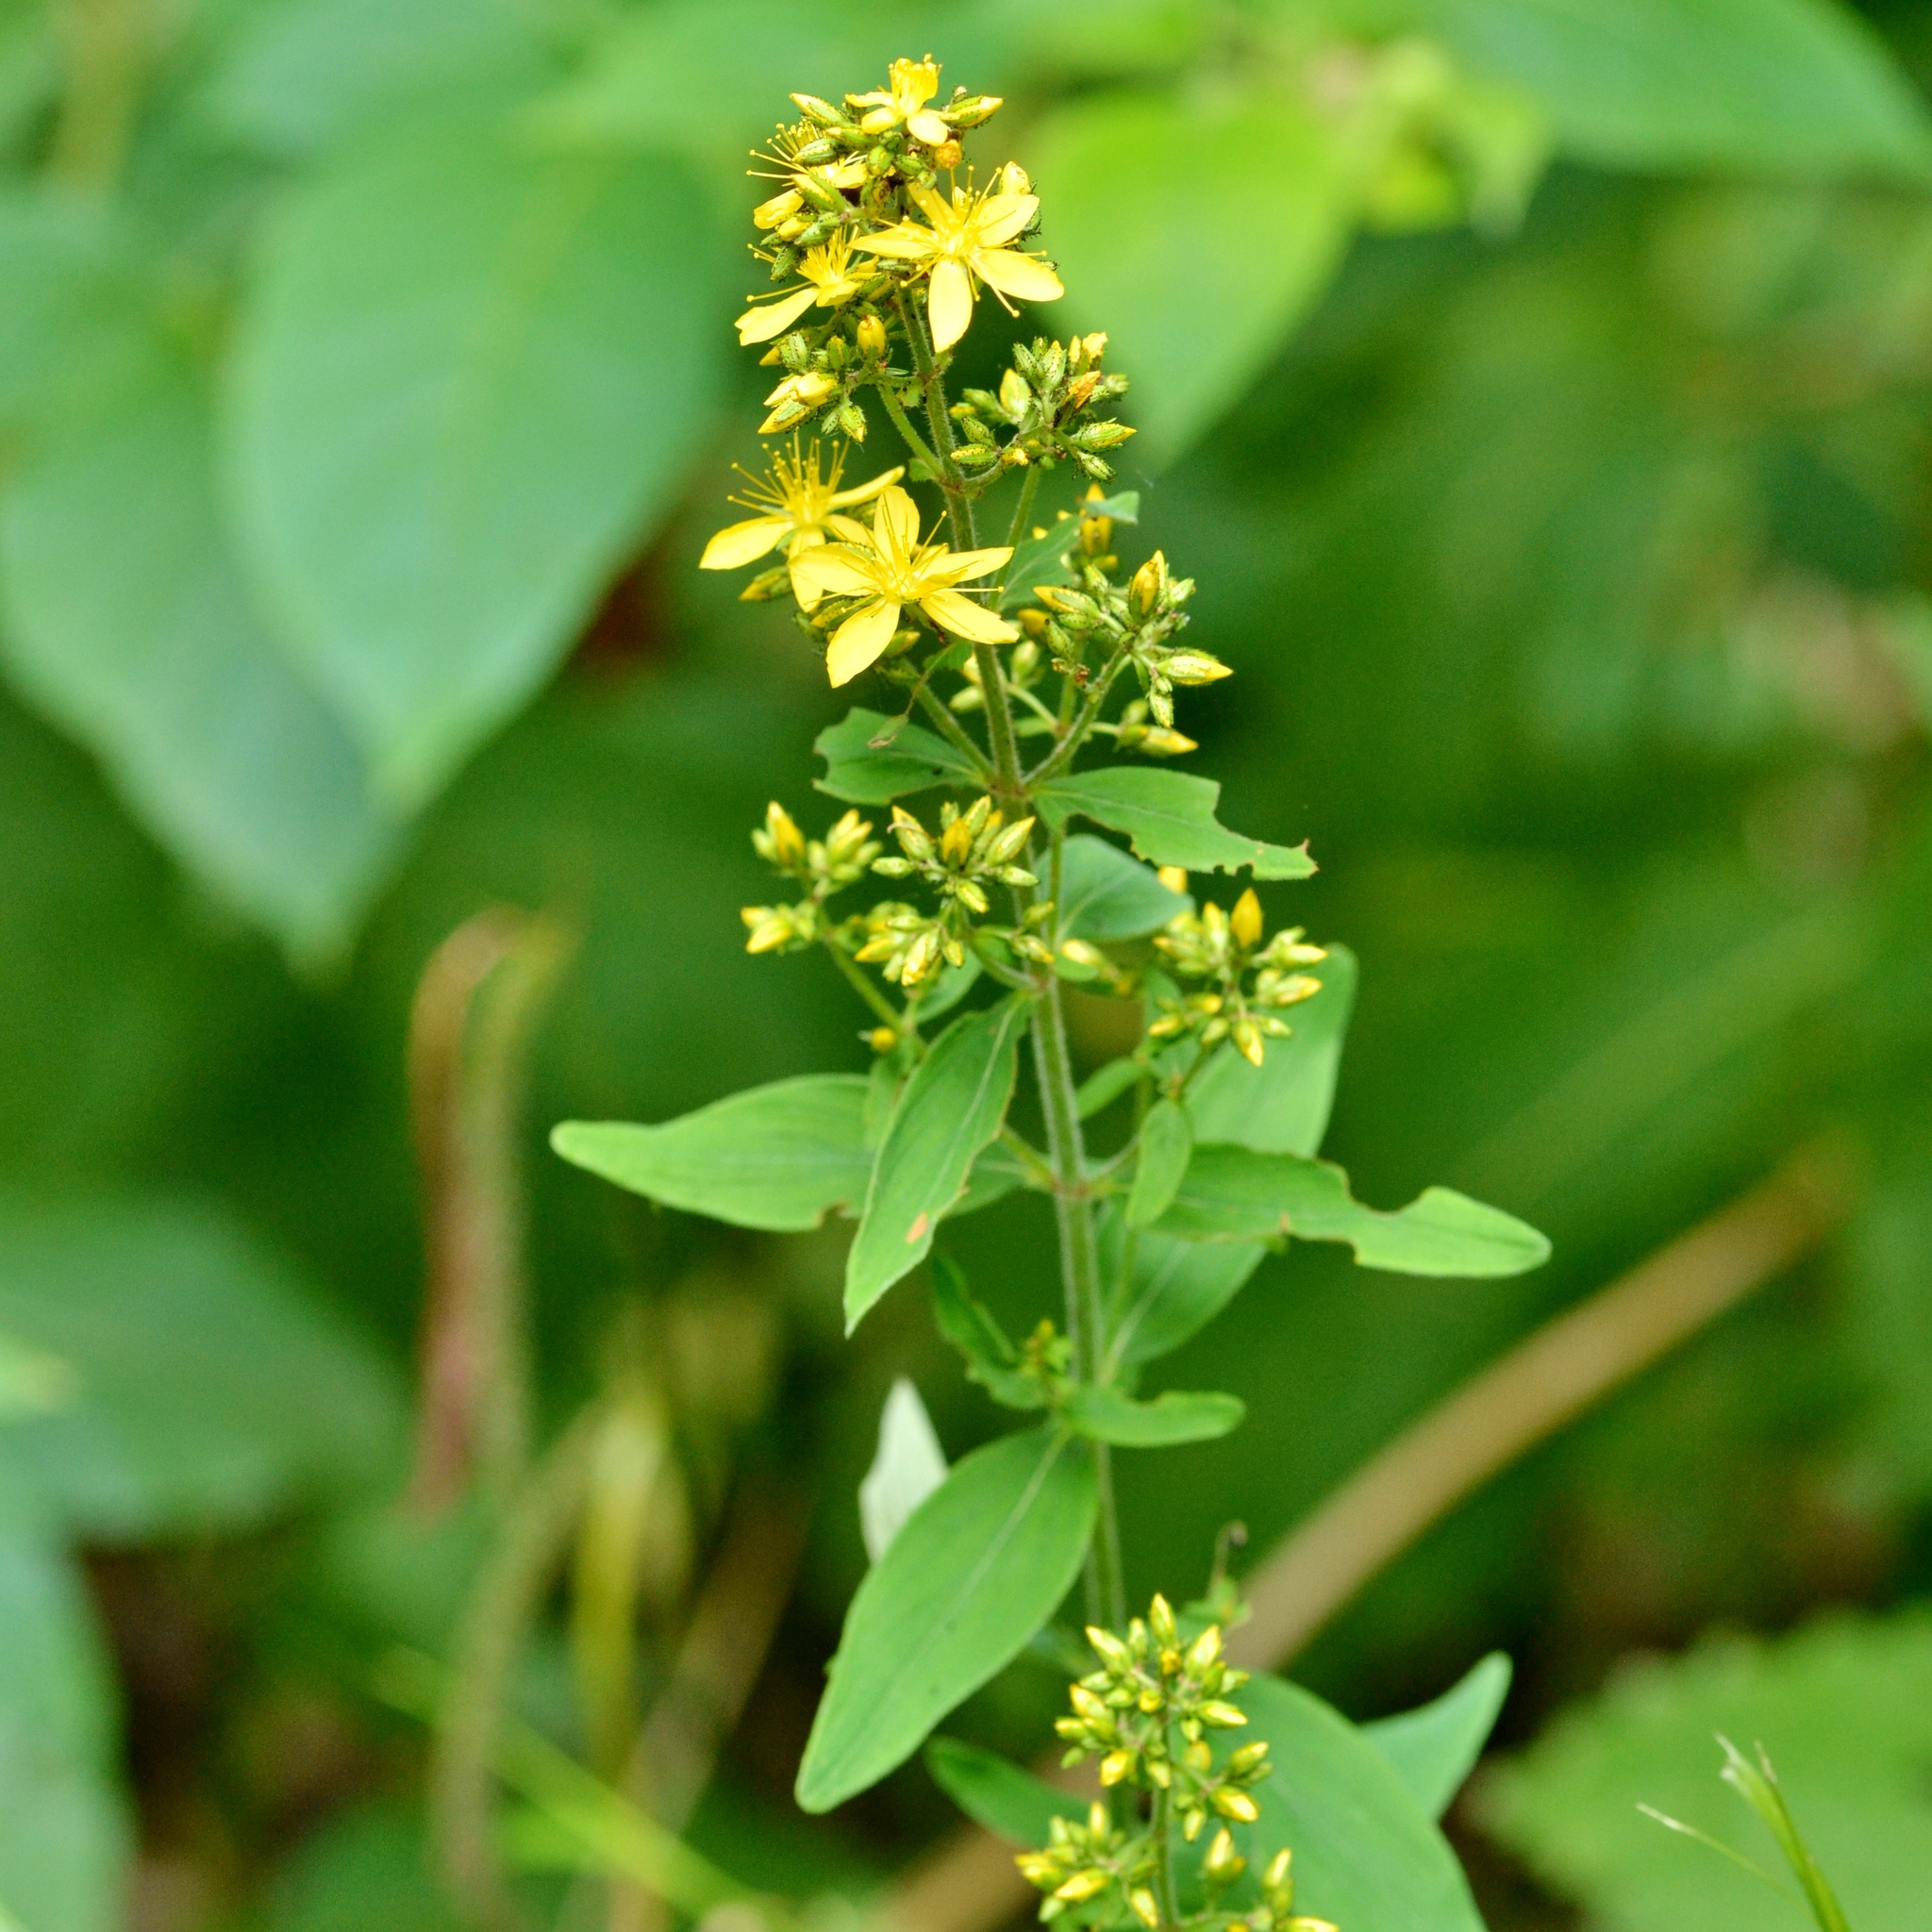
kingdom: Plantae
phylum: Tracheophyta
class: Magnoliopsida
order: Malpighiales
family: Hypericaceae
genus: Hypericum
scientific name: Hypericum hirsutum
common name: Hairy st. john's-wort
